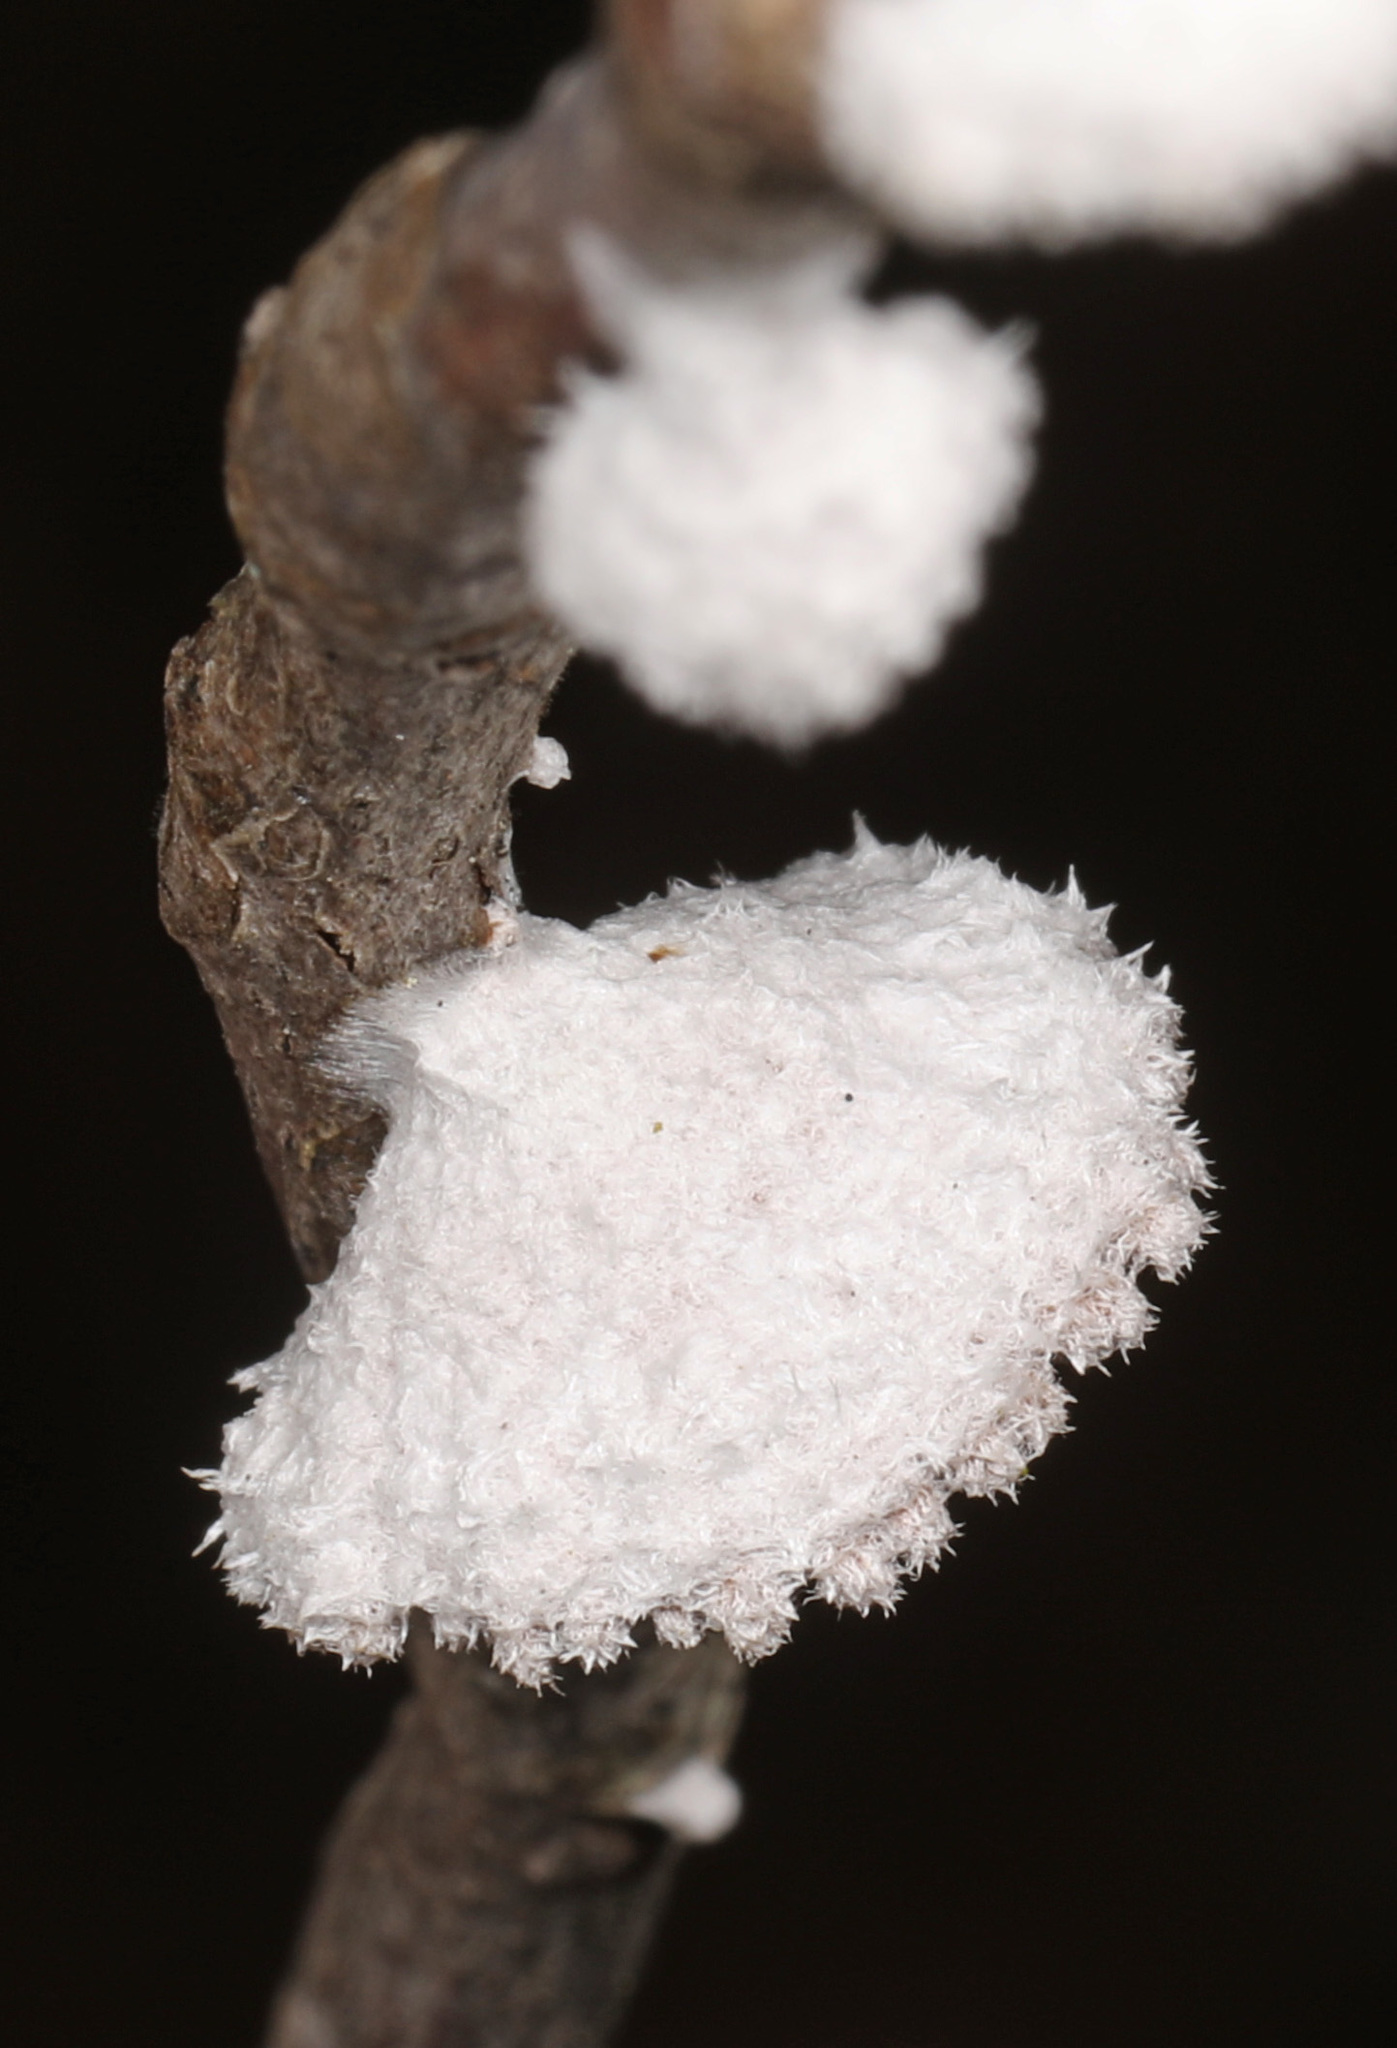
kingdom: Fungi
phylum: Basidiomycota
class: Agaricomycetes
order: Agaricales
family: Schizophyllaceae
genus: Schizophyllum
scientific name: Schizophyllum commune
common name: Common porecrust
